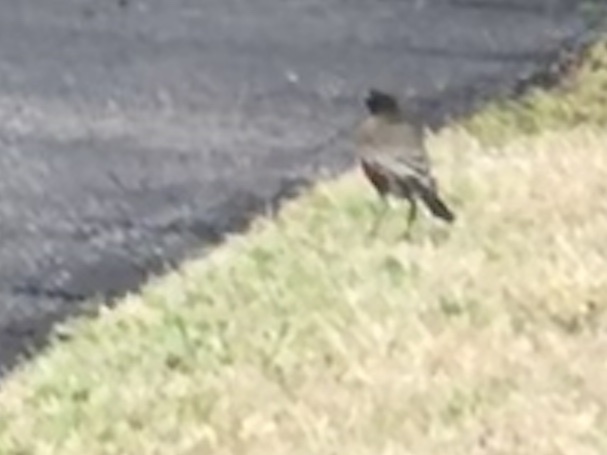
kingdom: Animalia
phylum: Chordata
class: Aves
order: Passeriformes
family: Turdidae
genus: Turdus
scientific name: Turdus migratorius
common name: American robin
